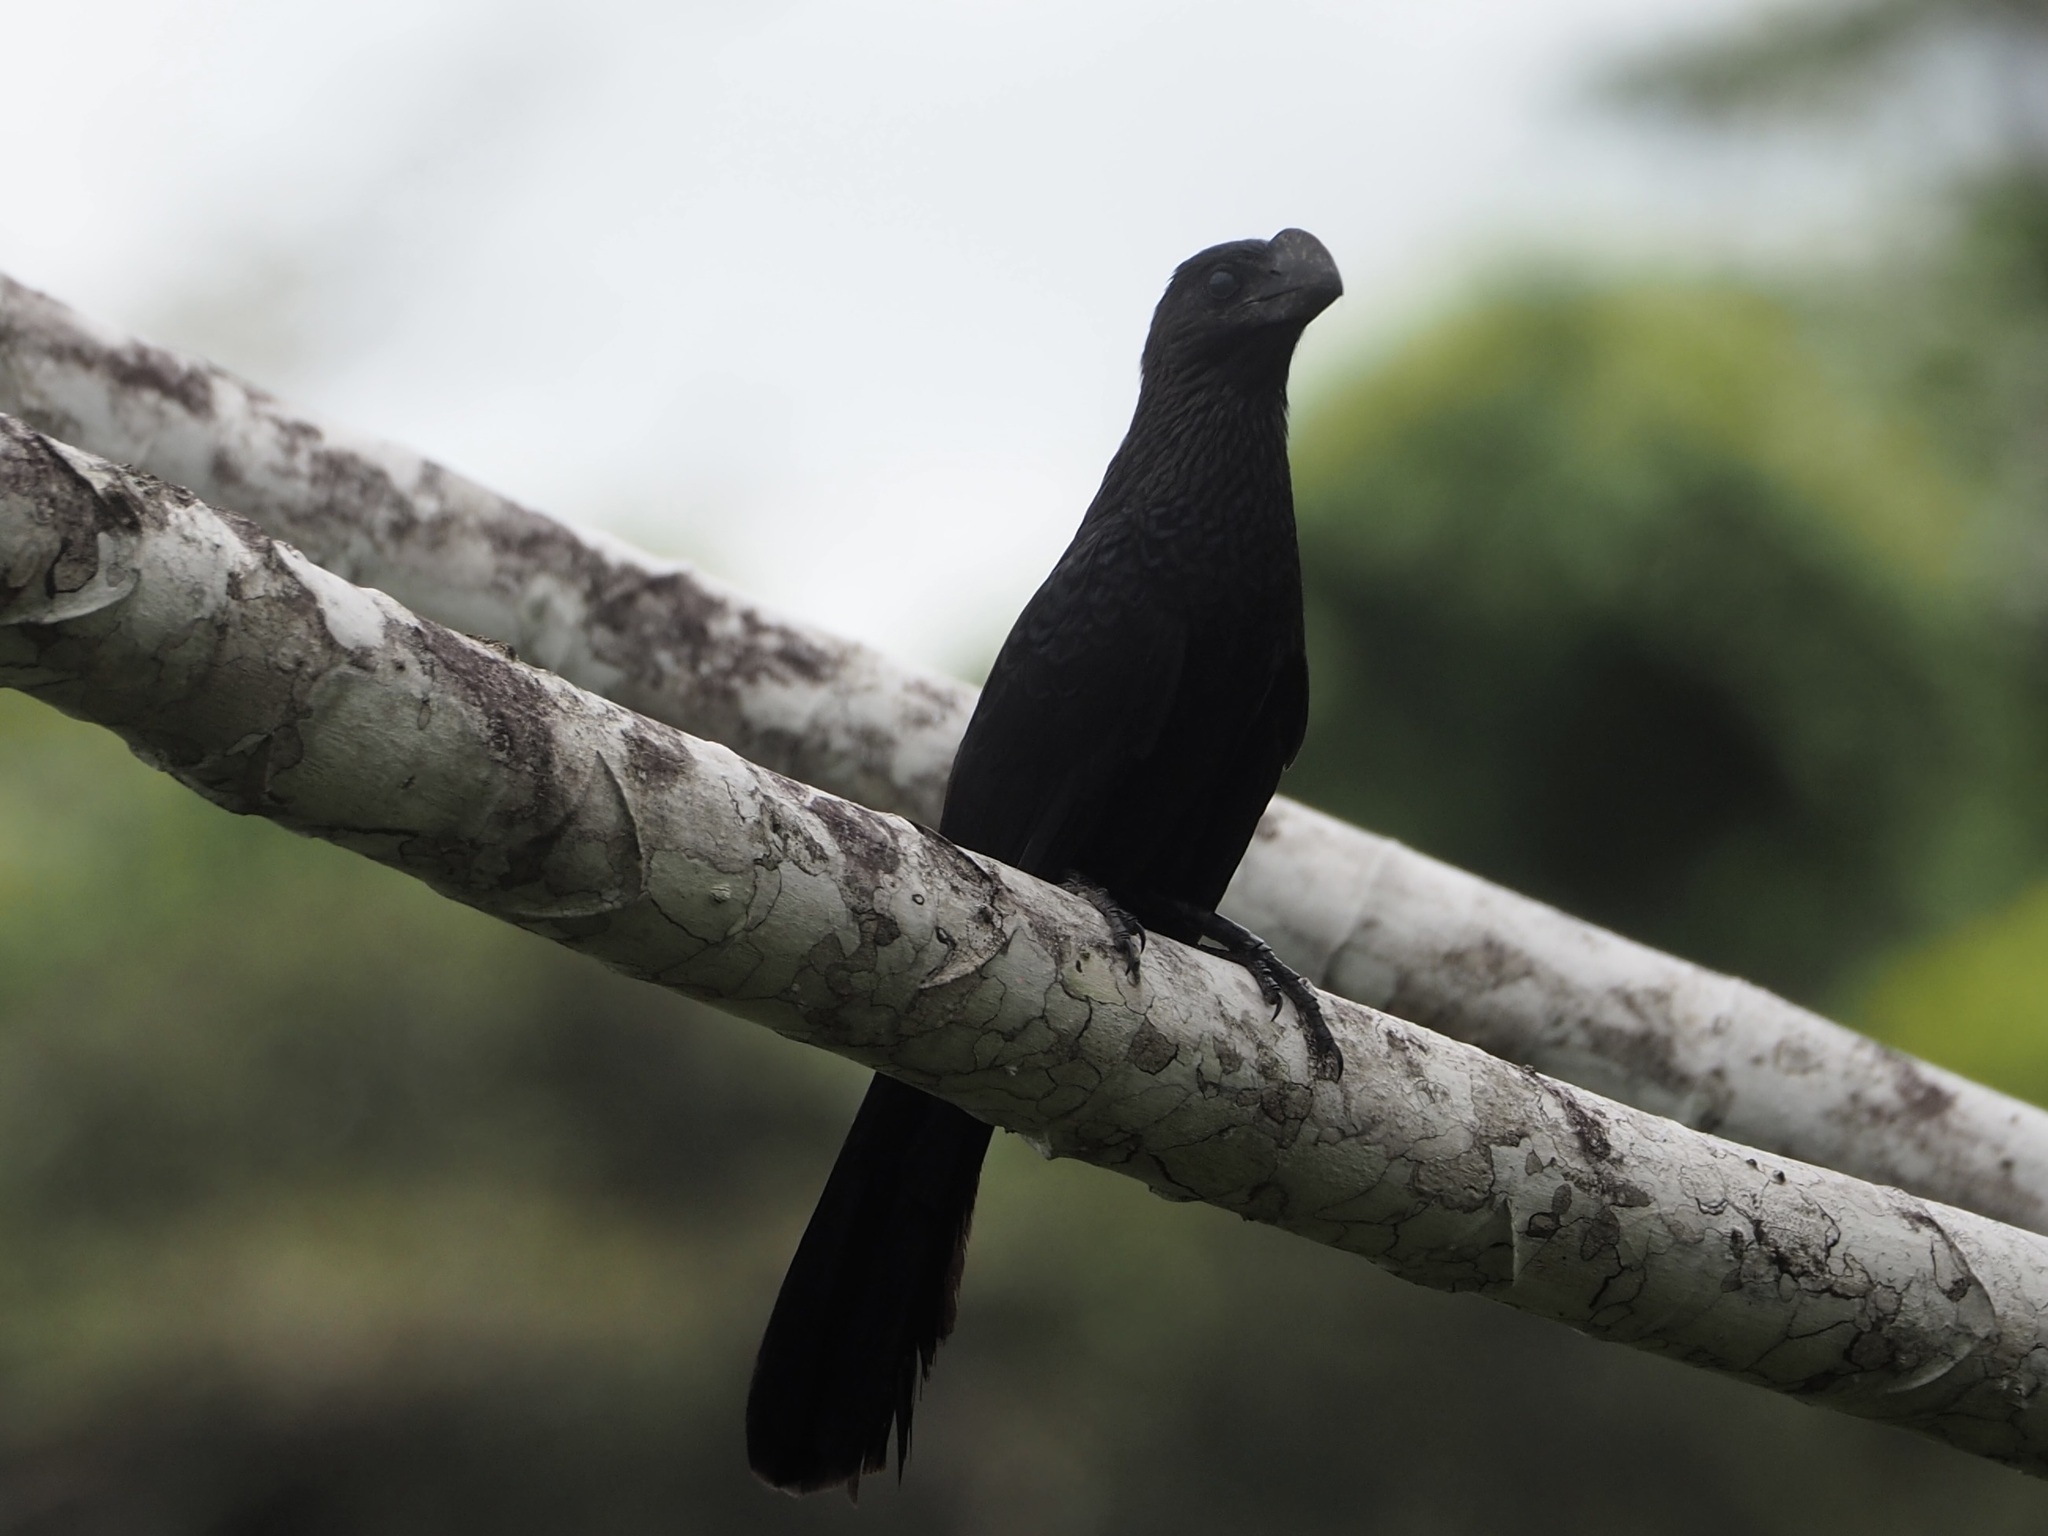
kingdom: Animalia
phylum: Chordata
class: Aves
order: Cuculiformes
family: Cuculidae
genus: Crotophaga
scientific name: Crotophaga ani
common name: Smooth-billed ani
